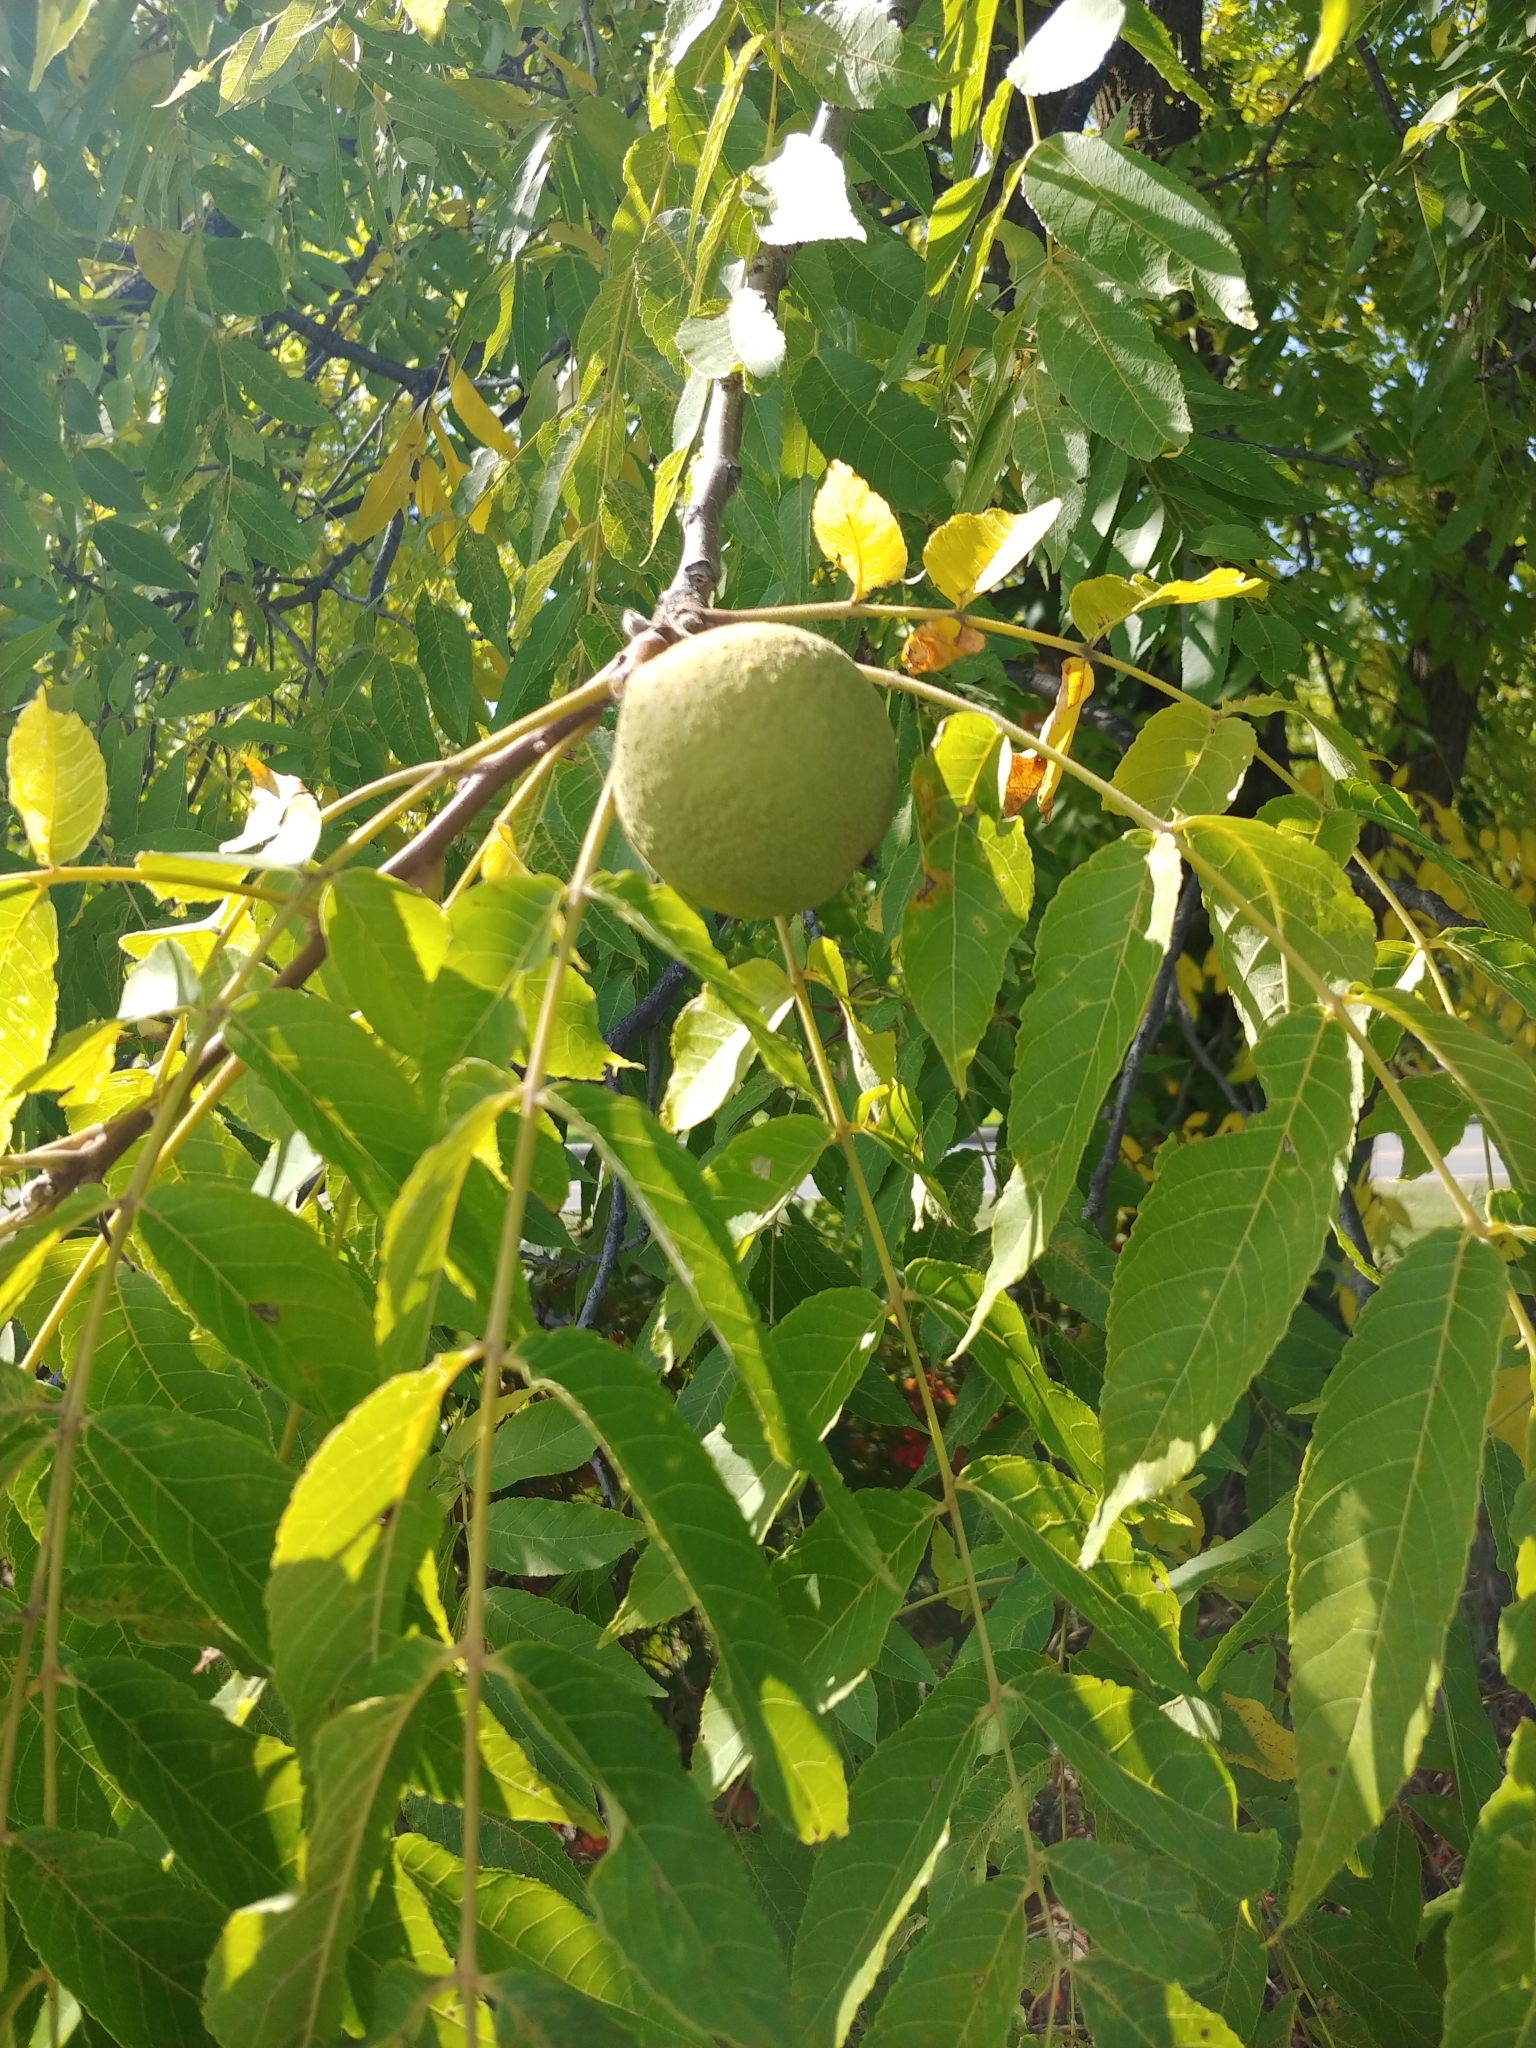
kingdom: Plantae
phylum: Tracheophyta
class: Magnoliopsida
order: Fagales
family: Juglandaceae
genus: Juglans
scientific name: Juglans nigra
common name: Black walnut
